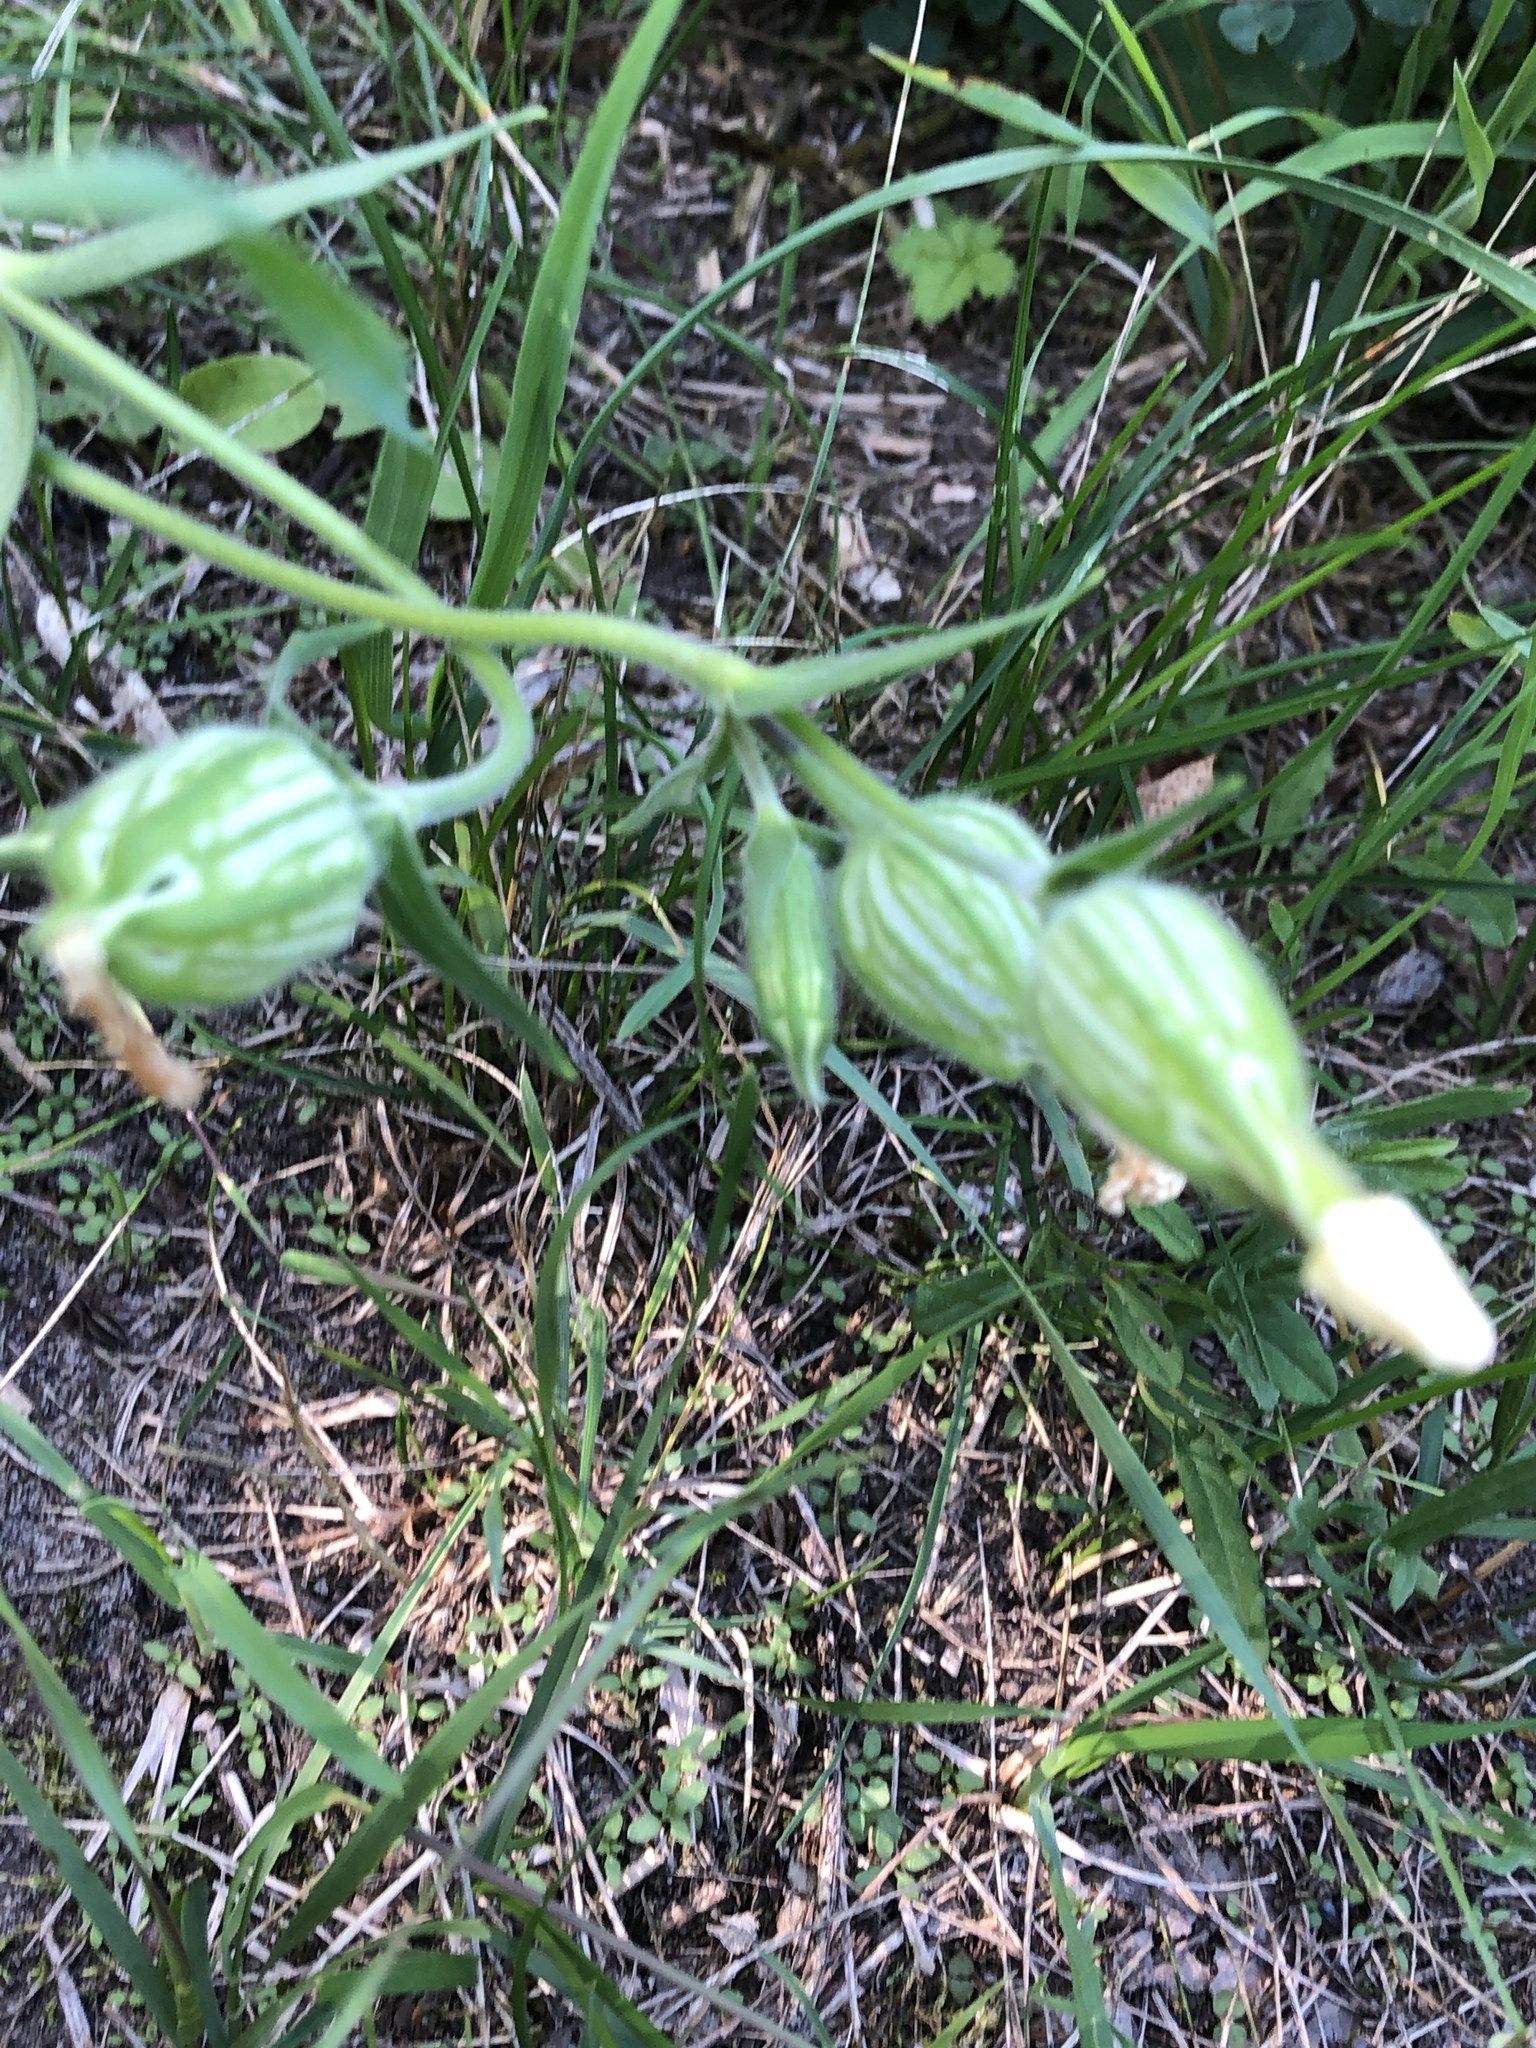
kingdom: Plantae
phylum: Tracheophyta
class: Magnoliopsida
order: Caryophyllales
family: Caryophyllaceae
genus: Silene
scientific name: Silene latifolia
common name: White campion
